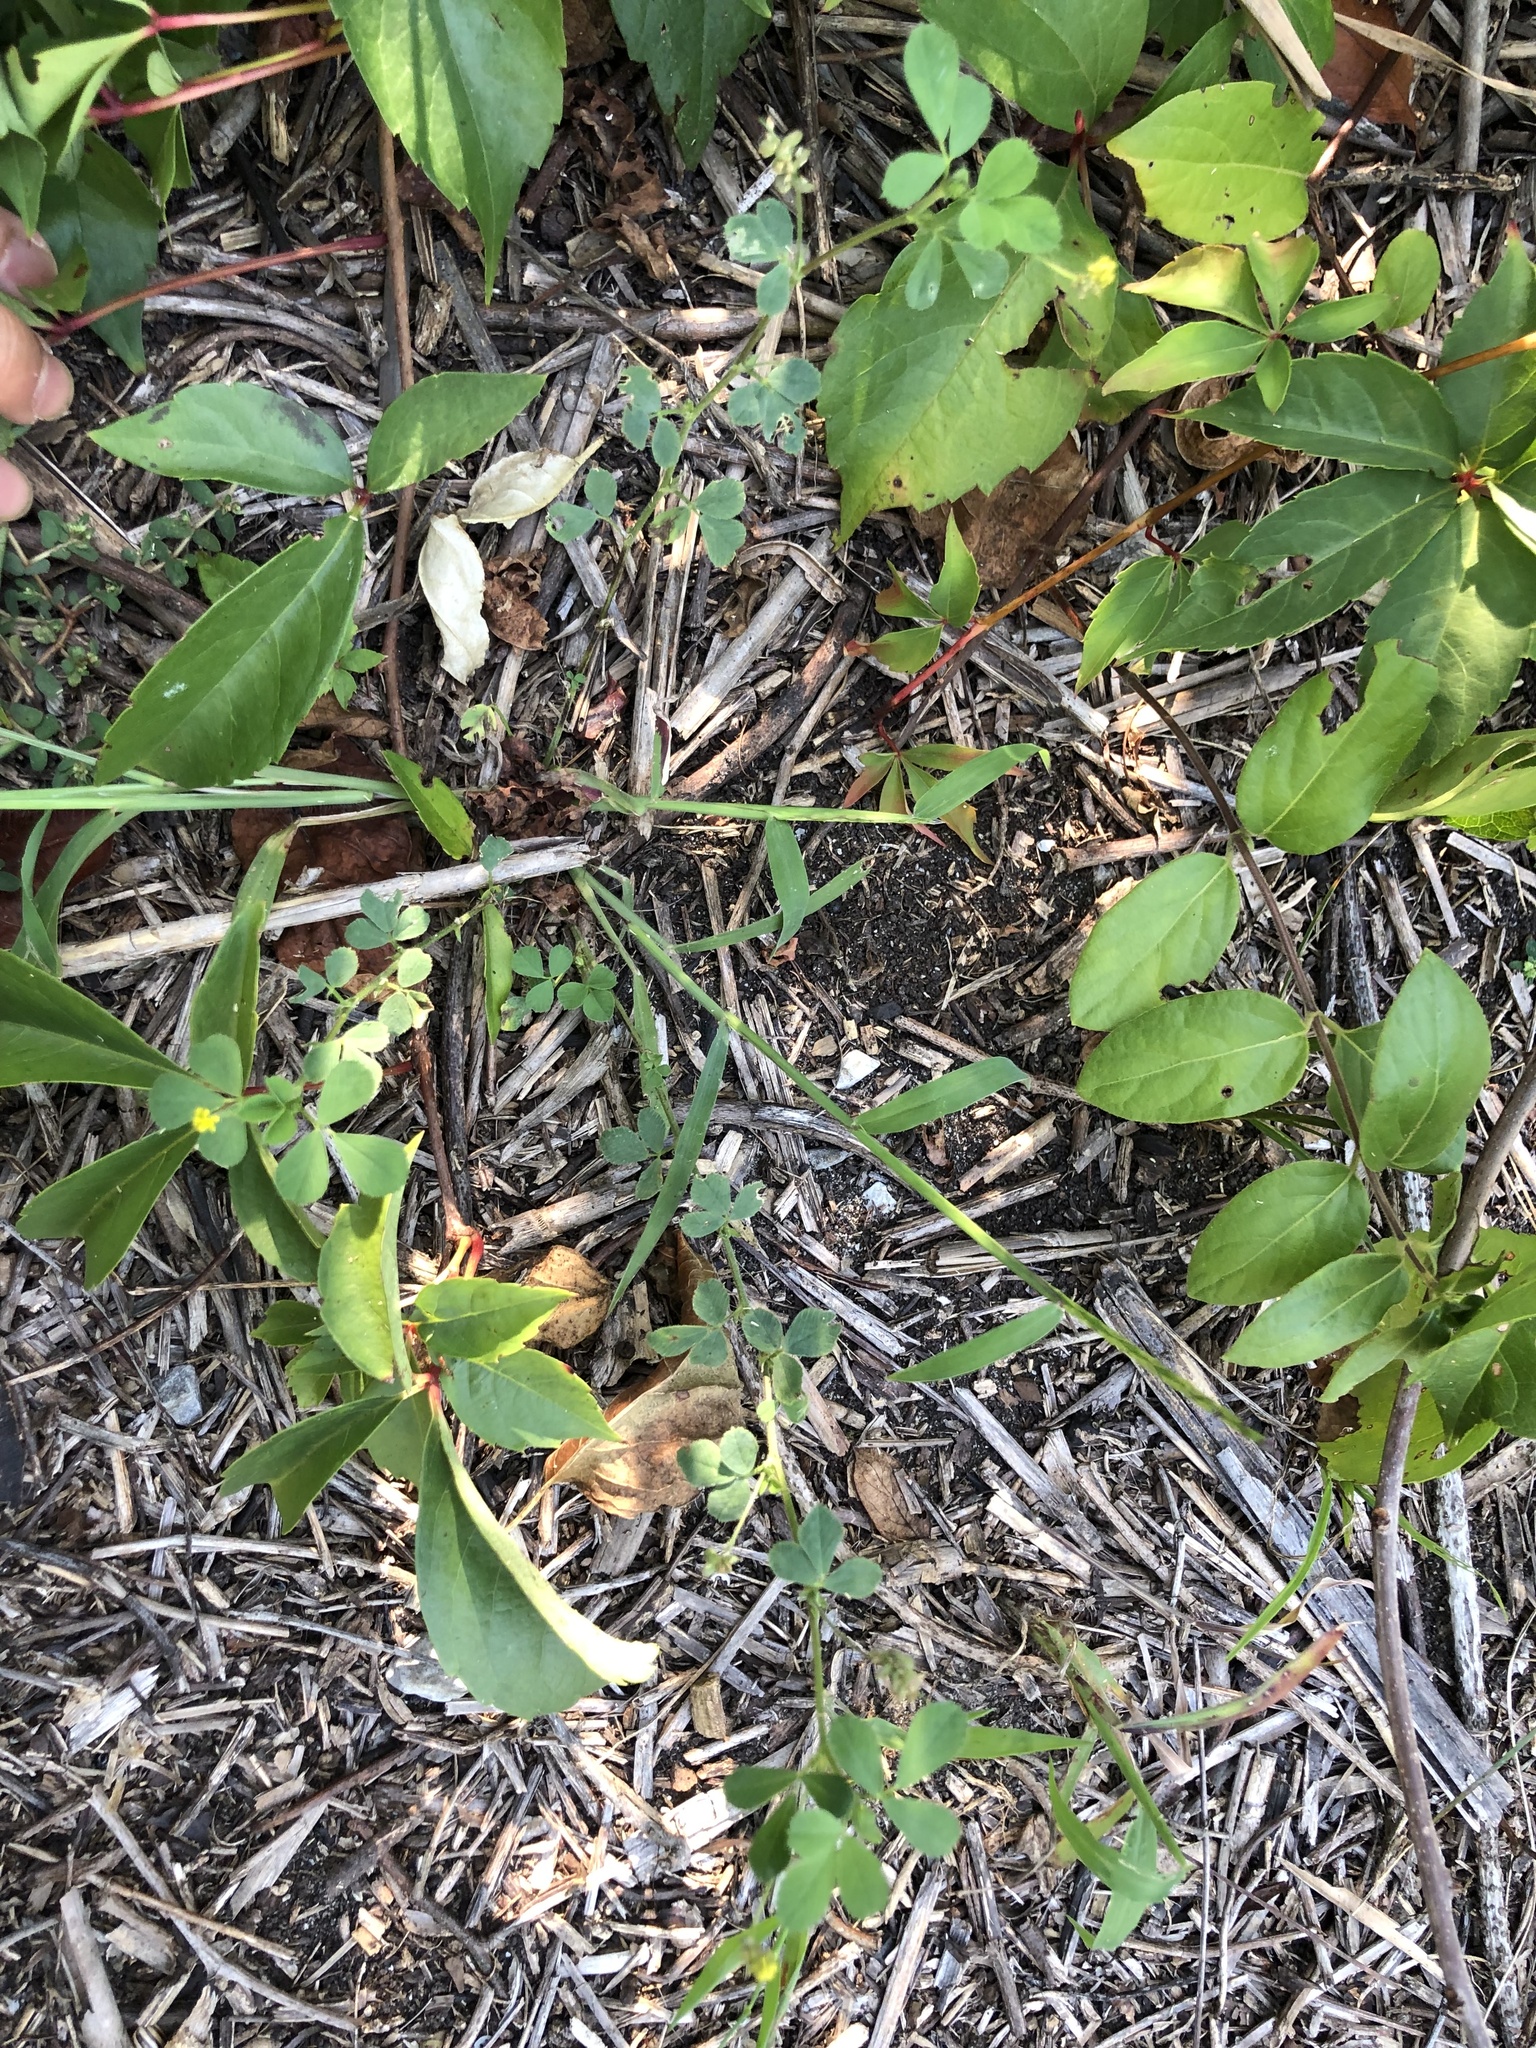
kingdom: Plantae
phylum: Tracheophyta
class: Magnoliopsida
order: Fabales
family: Fabaceae
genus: Medicago
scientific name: Medicago lupulina
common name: Black medick
